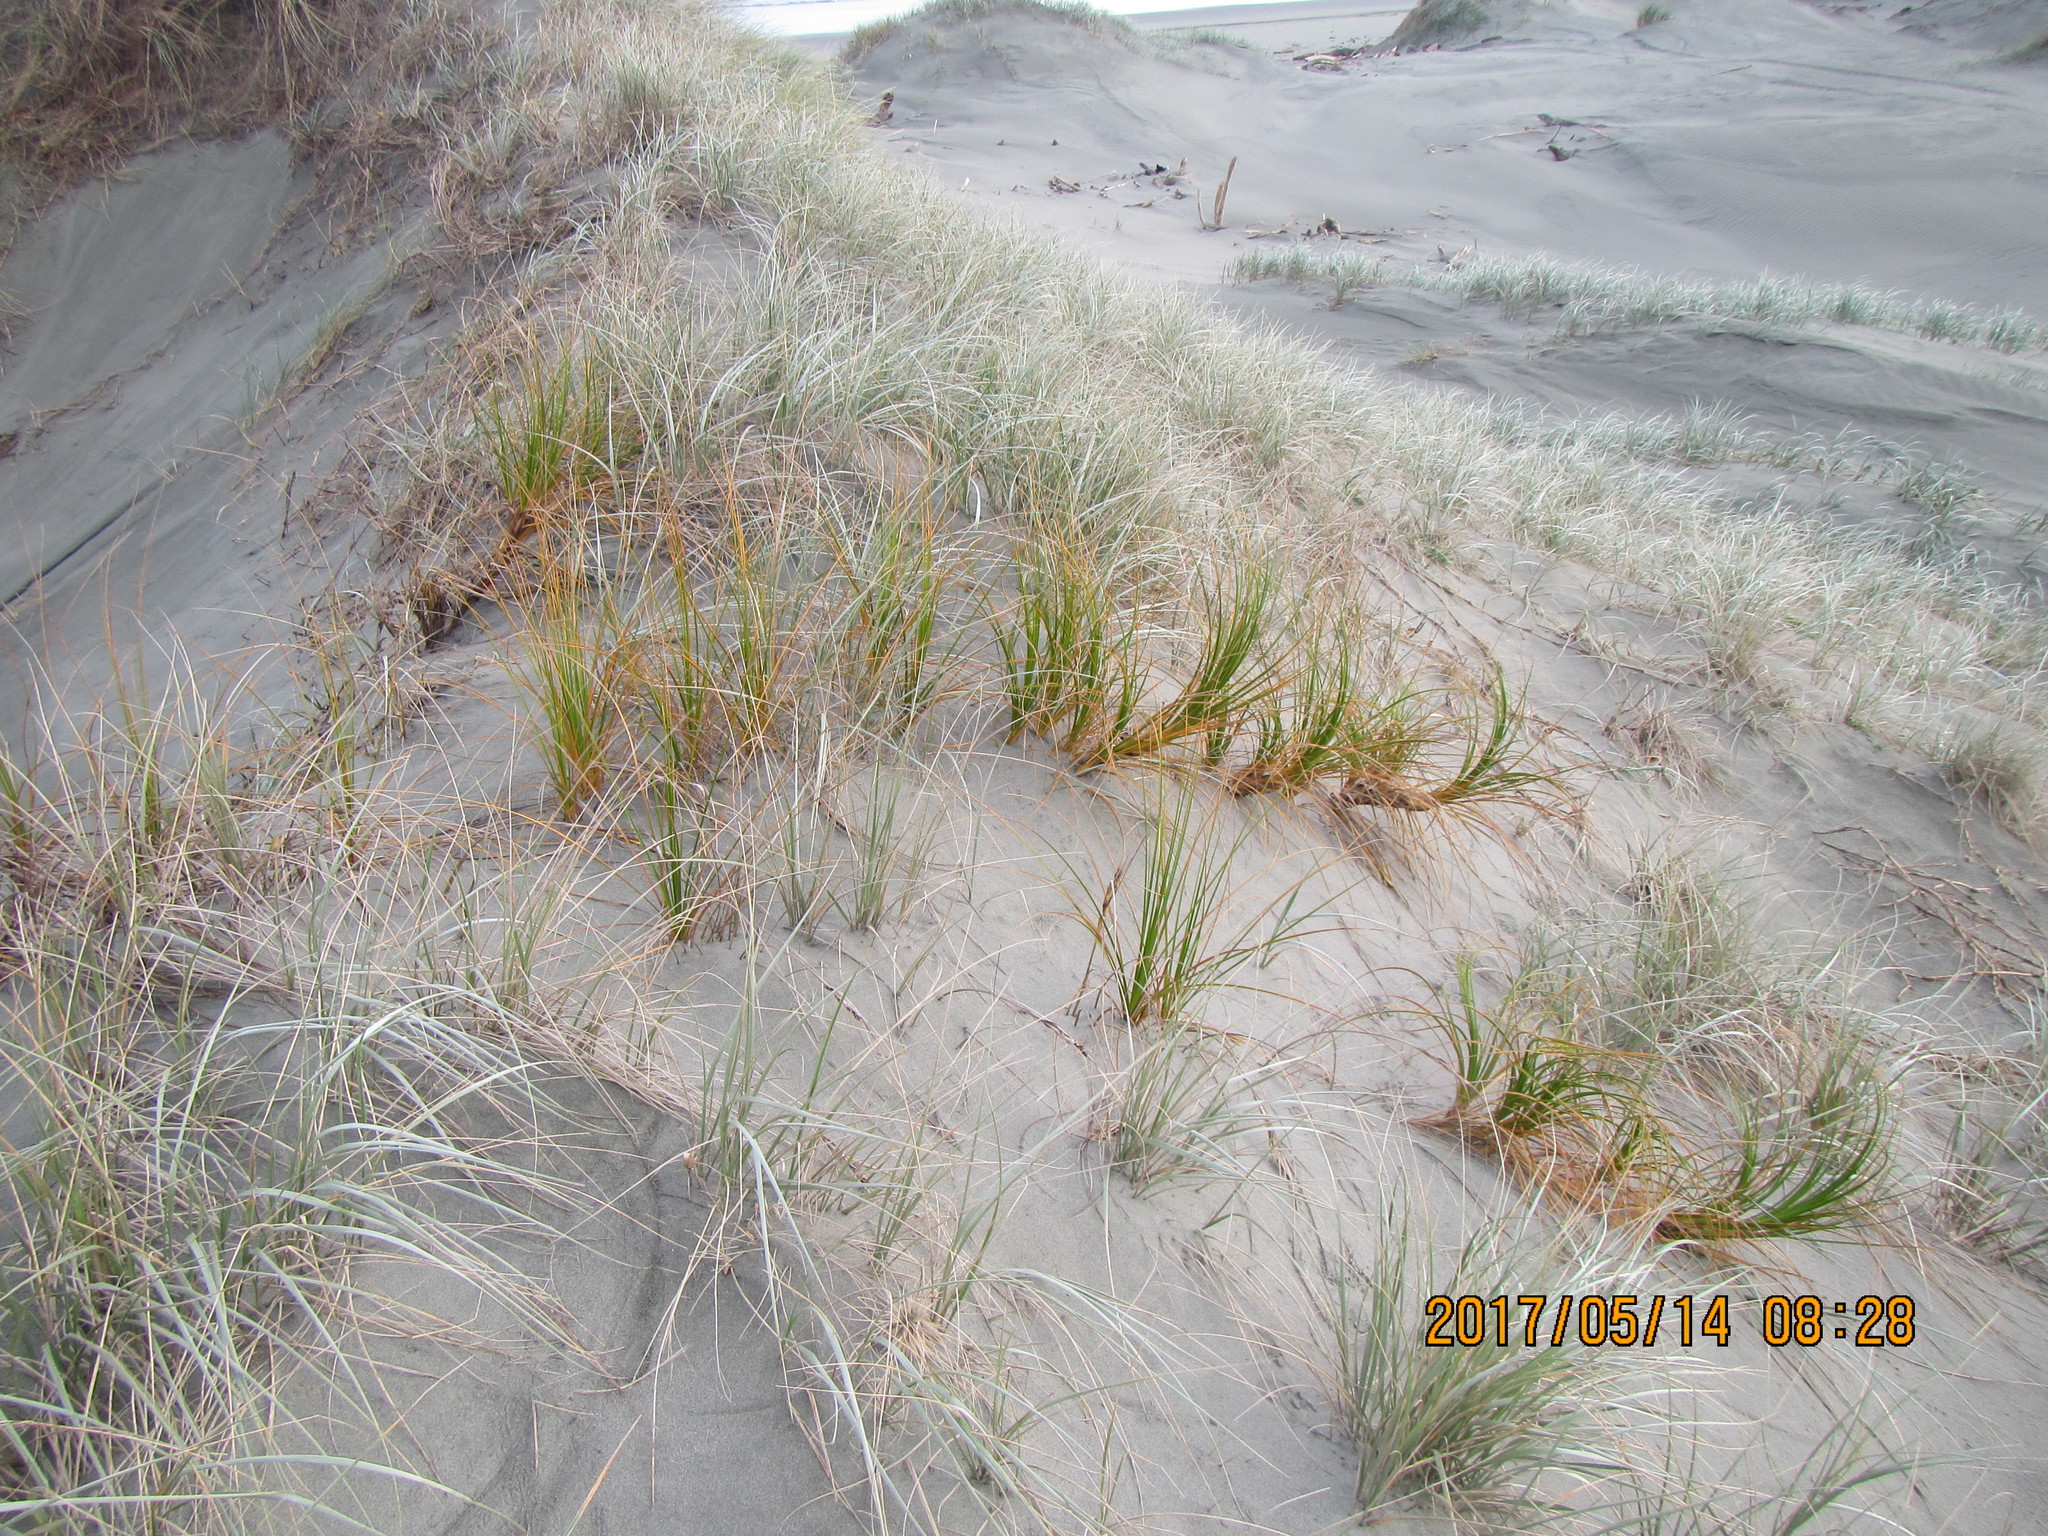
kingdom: Plantae
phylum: Tracheophyta
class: Liliopsida
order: Poales
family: Cyperaceae
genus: Ficinia
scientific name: Ficinia spiralis
